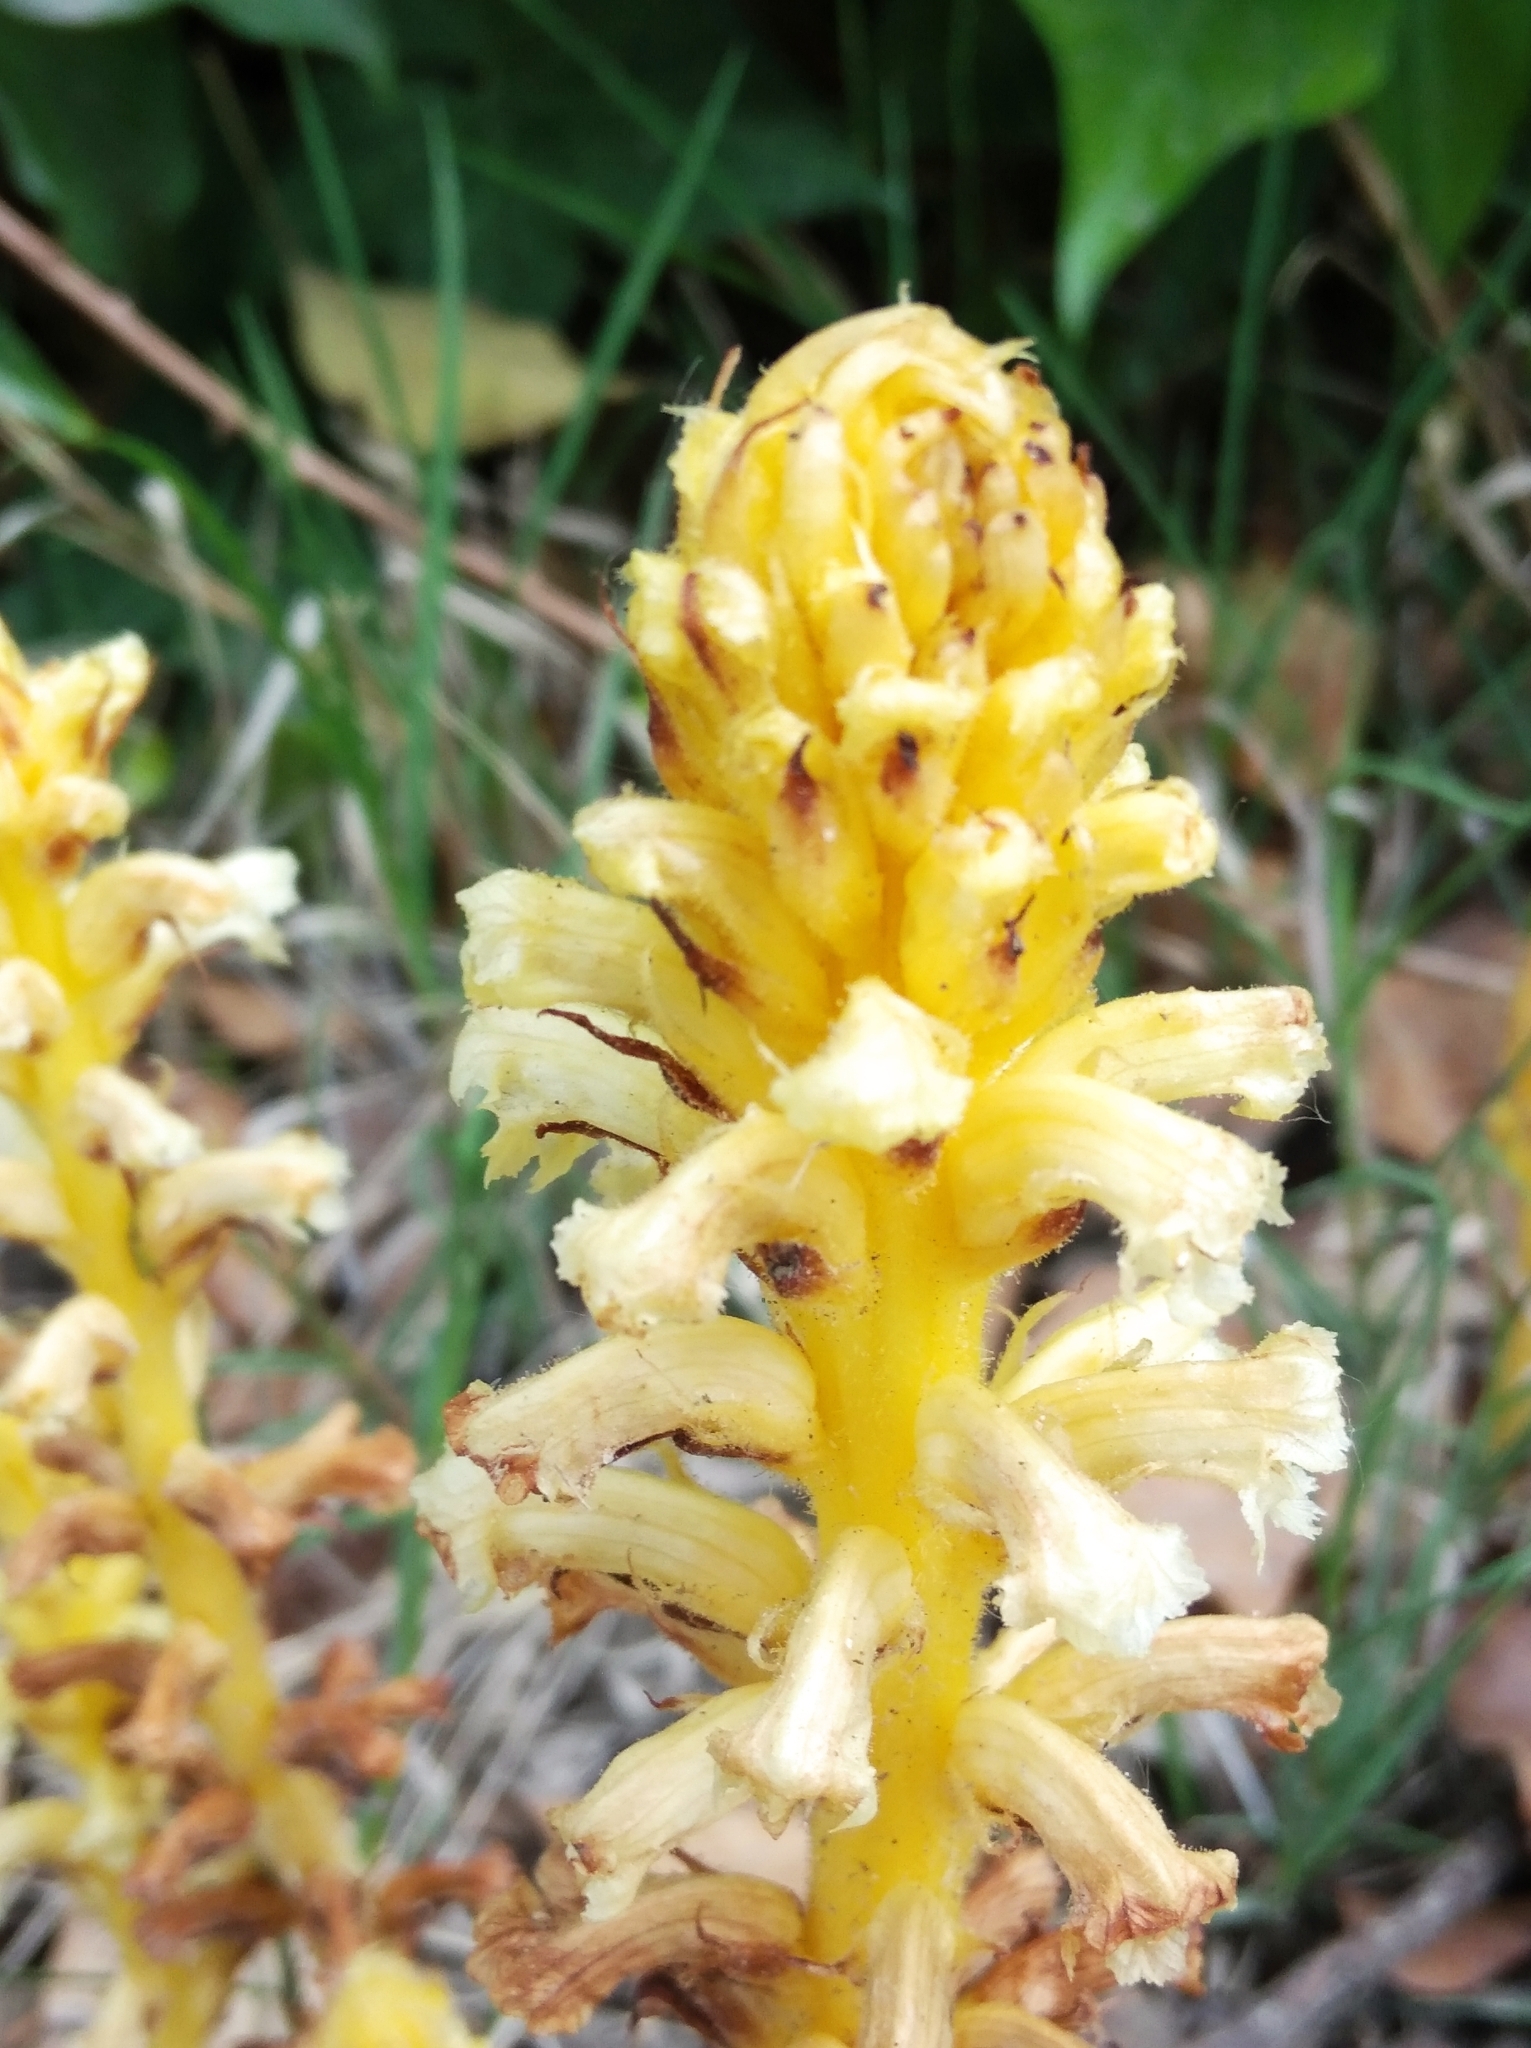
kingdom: Plantae
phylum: Tracheophyta
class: Magnoliopsida
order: Lamiales
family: Orobanchaceae
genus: Orobanche
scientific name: Orobanche hederae
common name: Ivy broomrape
